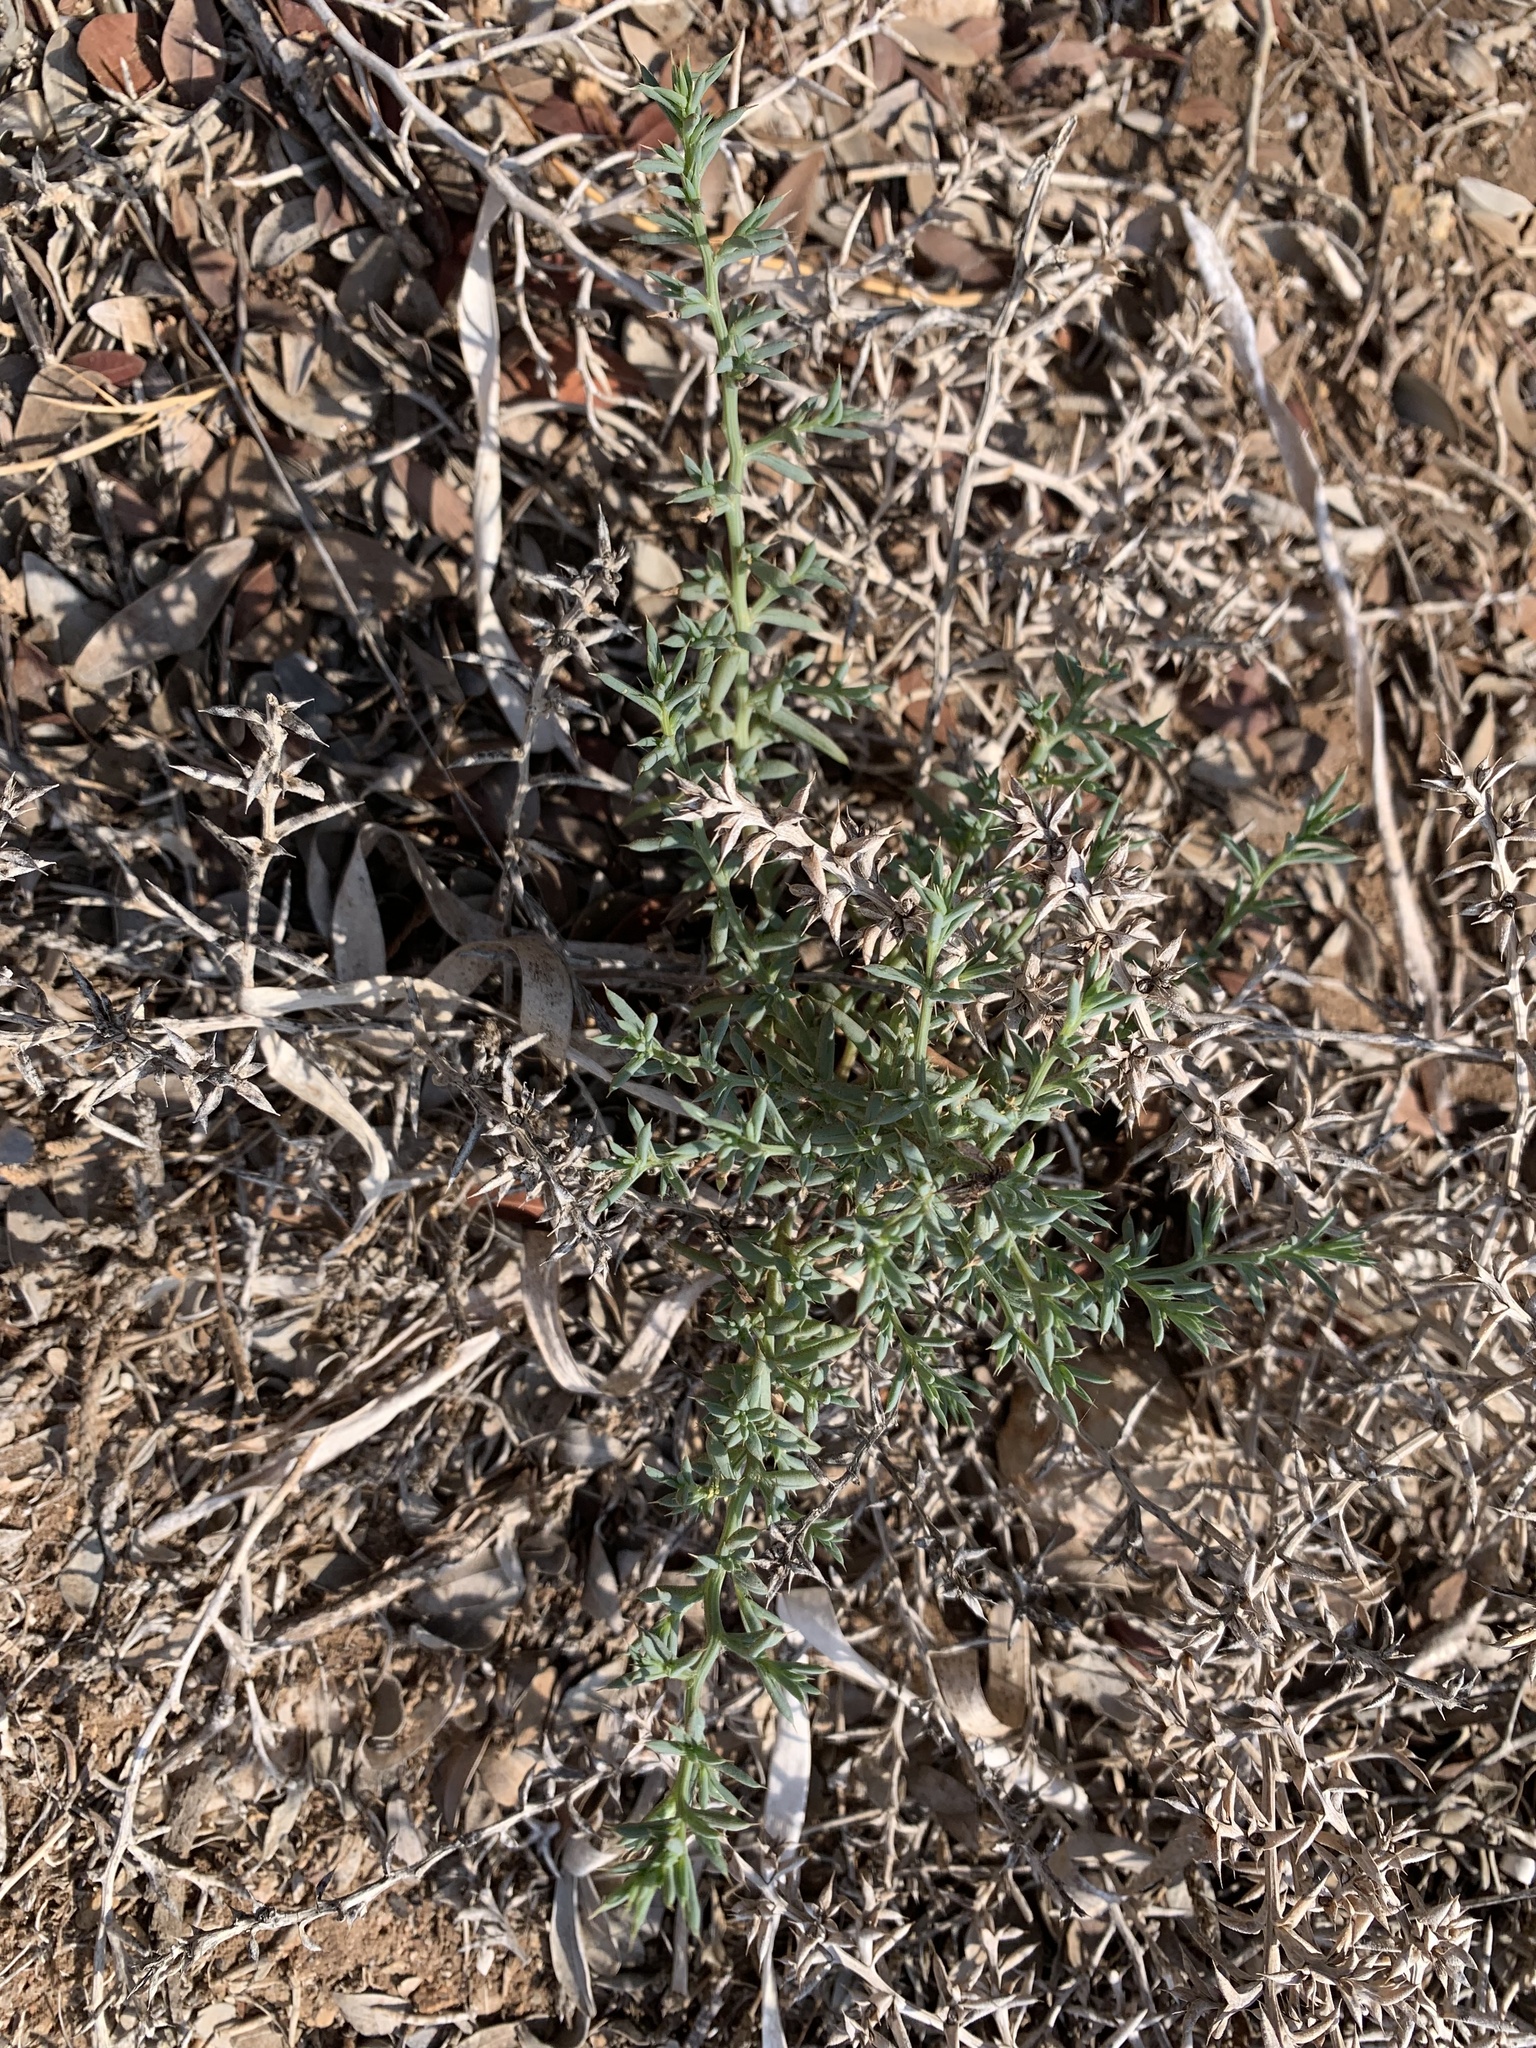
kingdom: Plantae
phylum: Tracheophyta
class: Magnoliopsida
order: Caryophyllales
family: Amaranthaceae
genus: Salsola
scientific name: Salsola squarrosa
